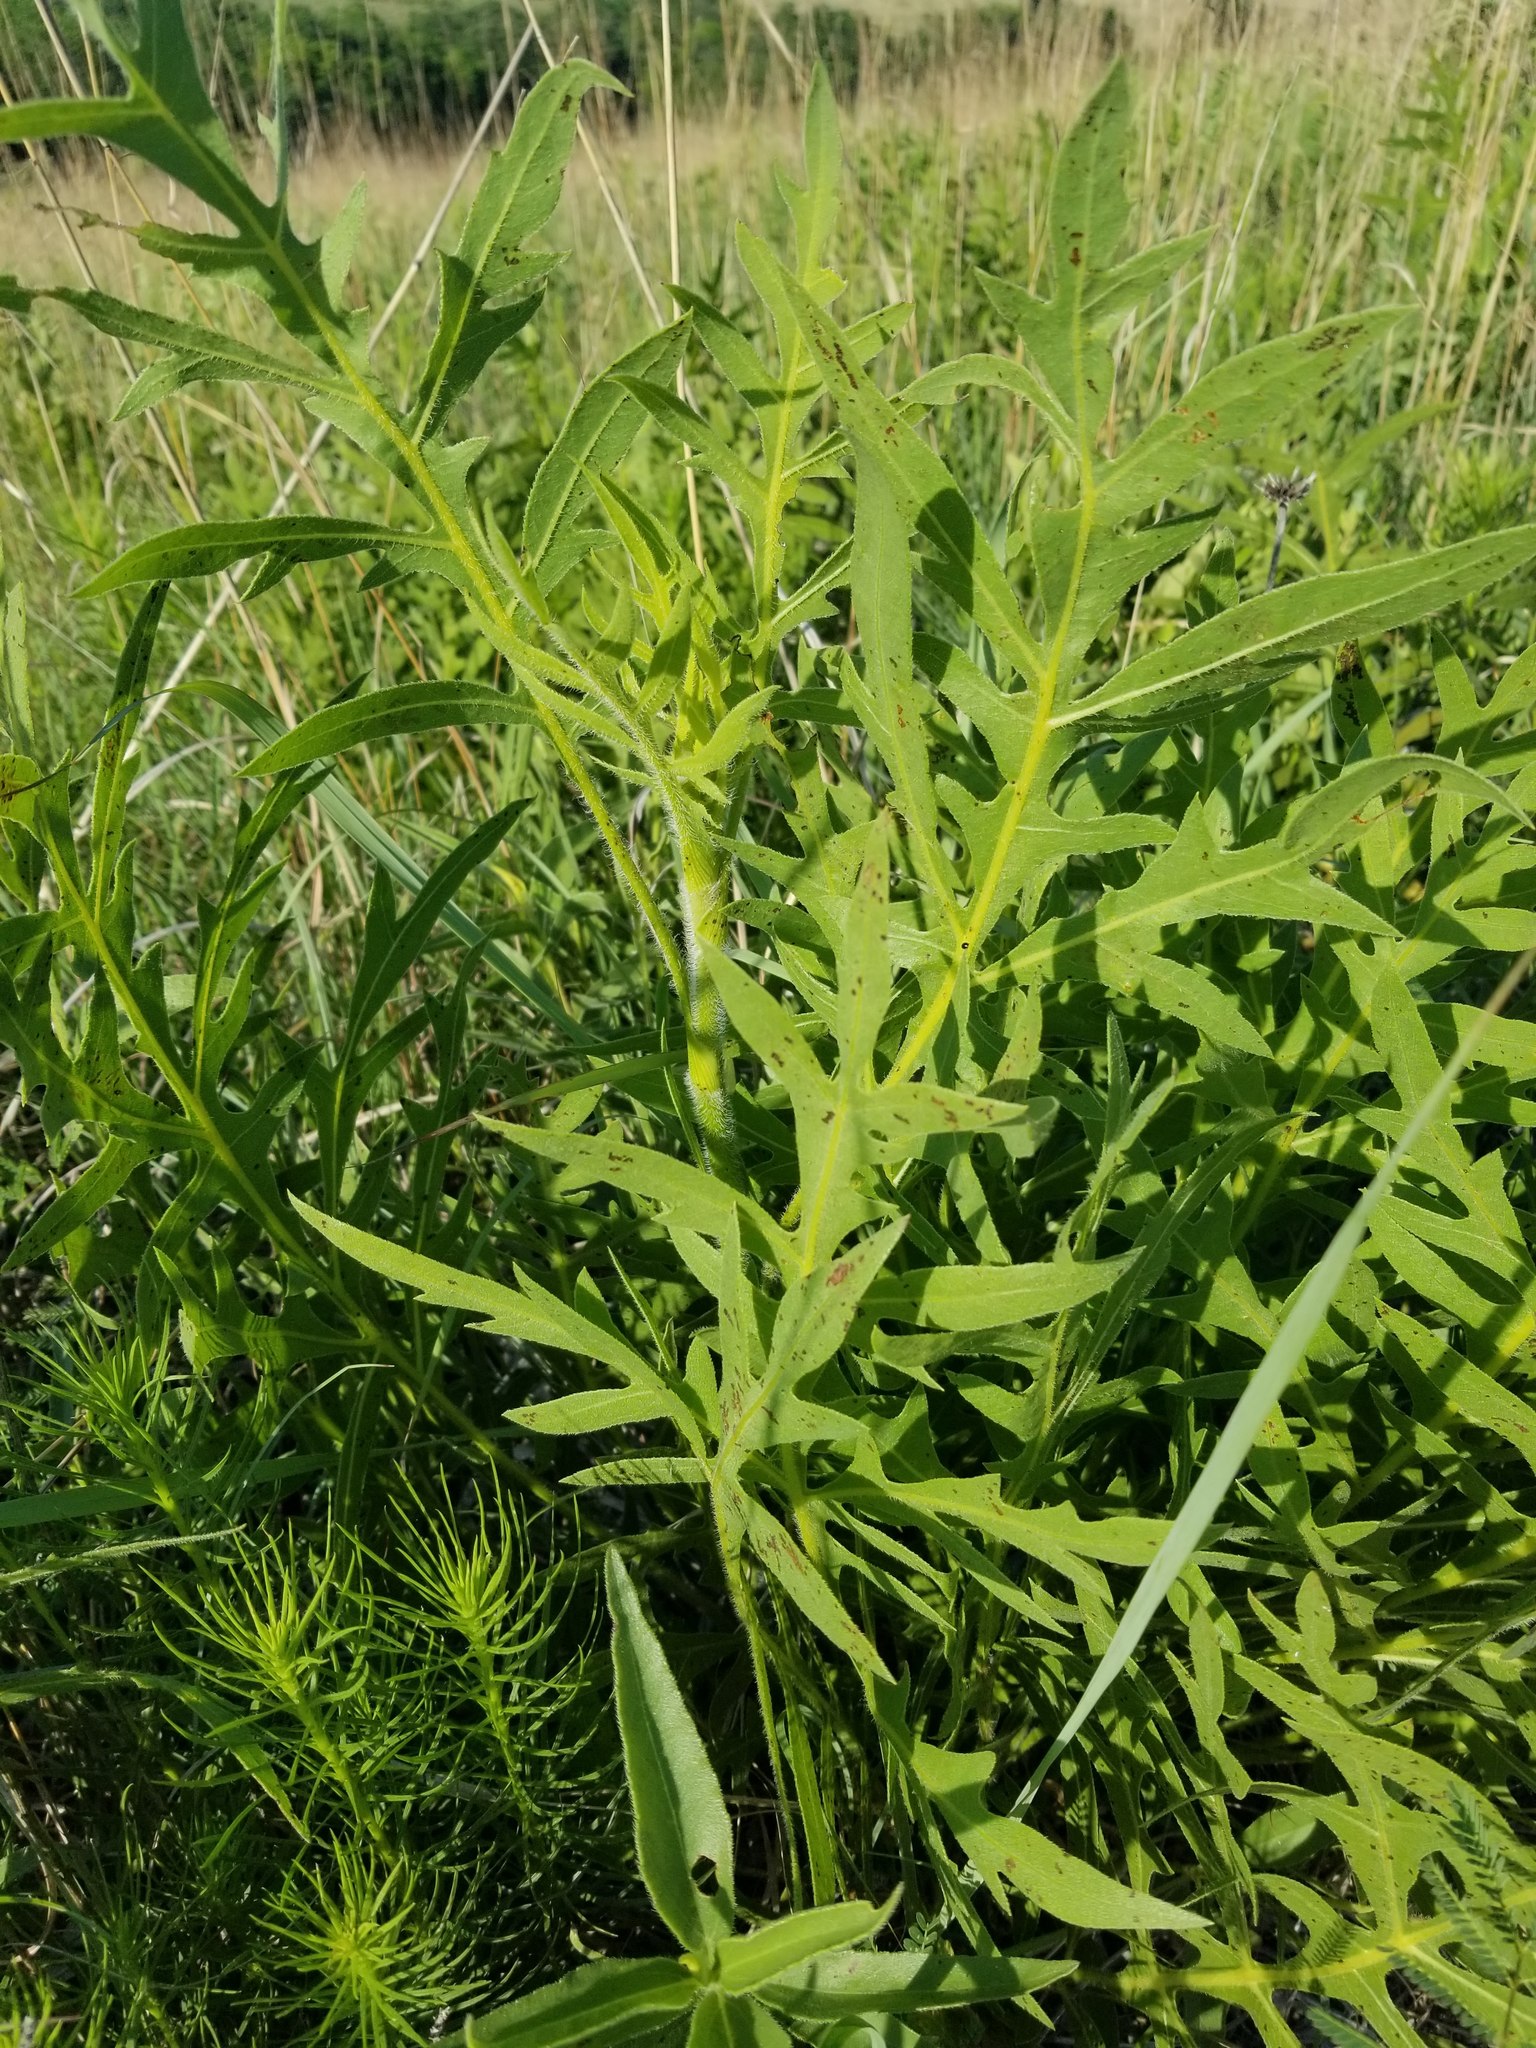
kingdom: Plantae
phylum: Tracheophyta
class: Magnoliopsida
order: Asterales
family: Asteraceae
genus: Silphium
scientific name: Silphium laciniatum
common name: Polarplant
